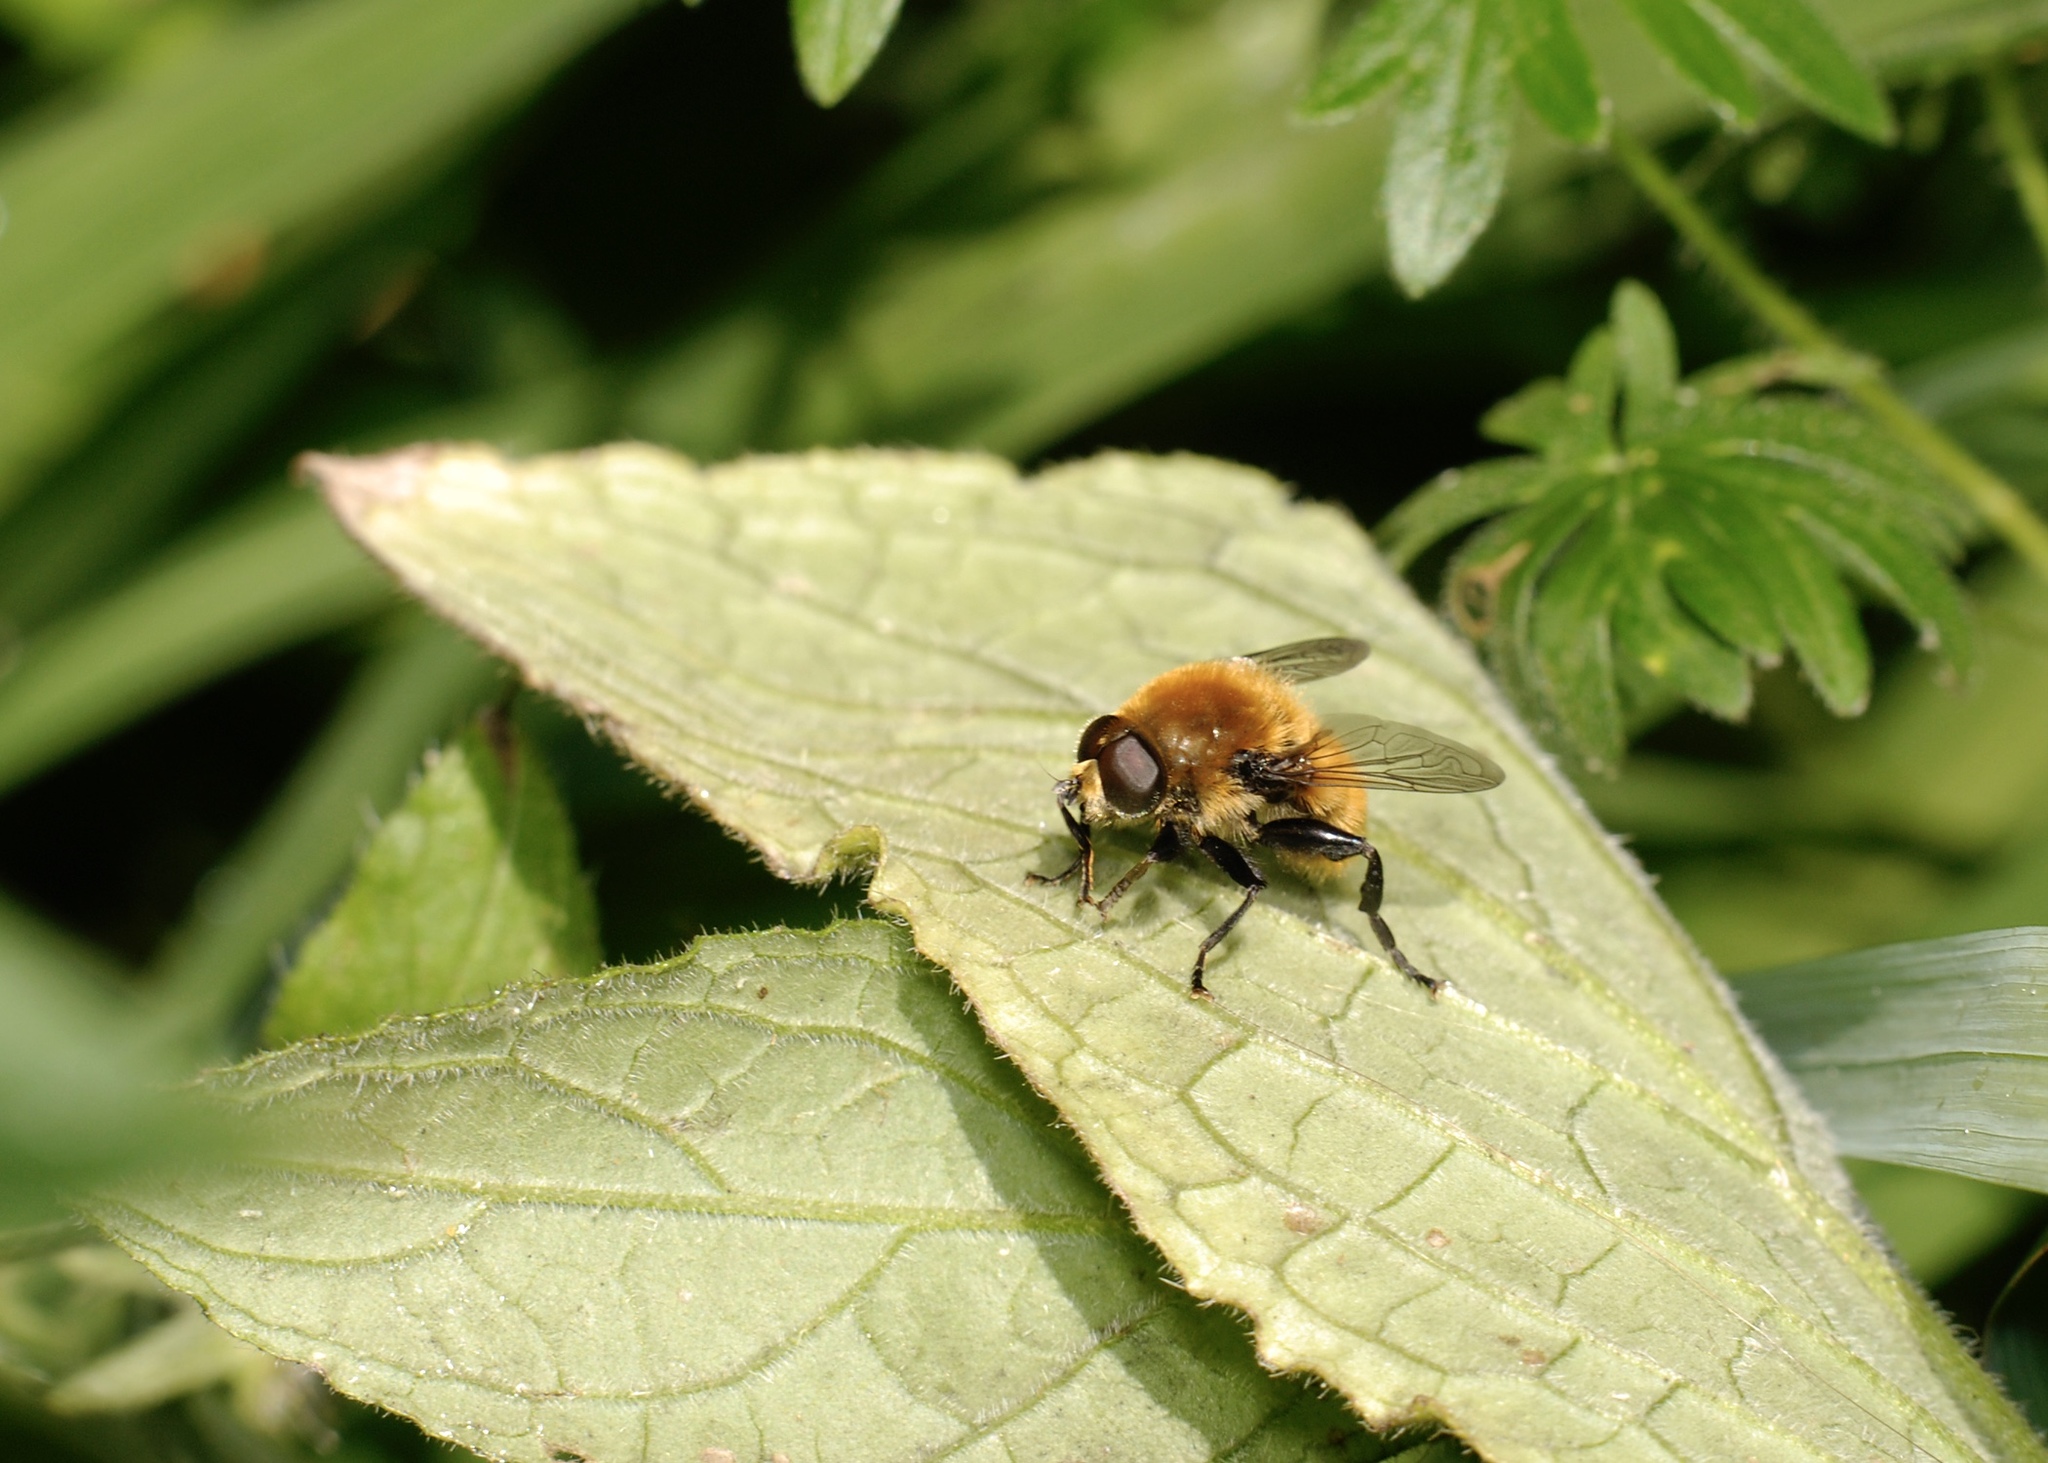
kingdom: Animalia
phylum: Arthropoda
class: Insecta
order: Diptera
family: Syrphidae
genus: Merodon
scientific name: Merodon equestris
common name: Greater bulb-fly
